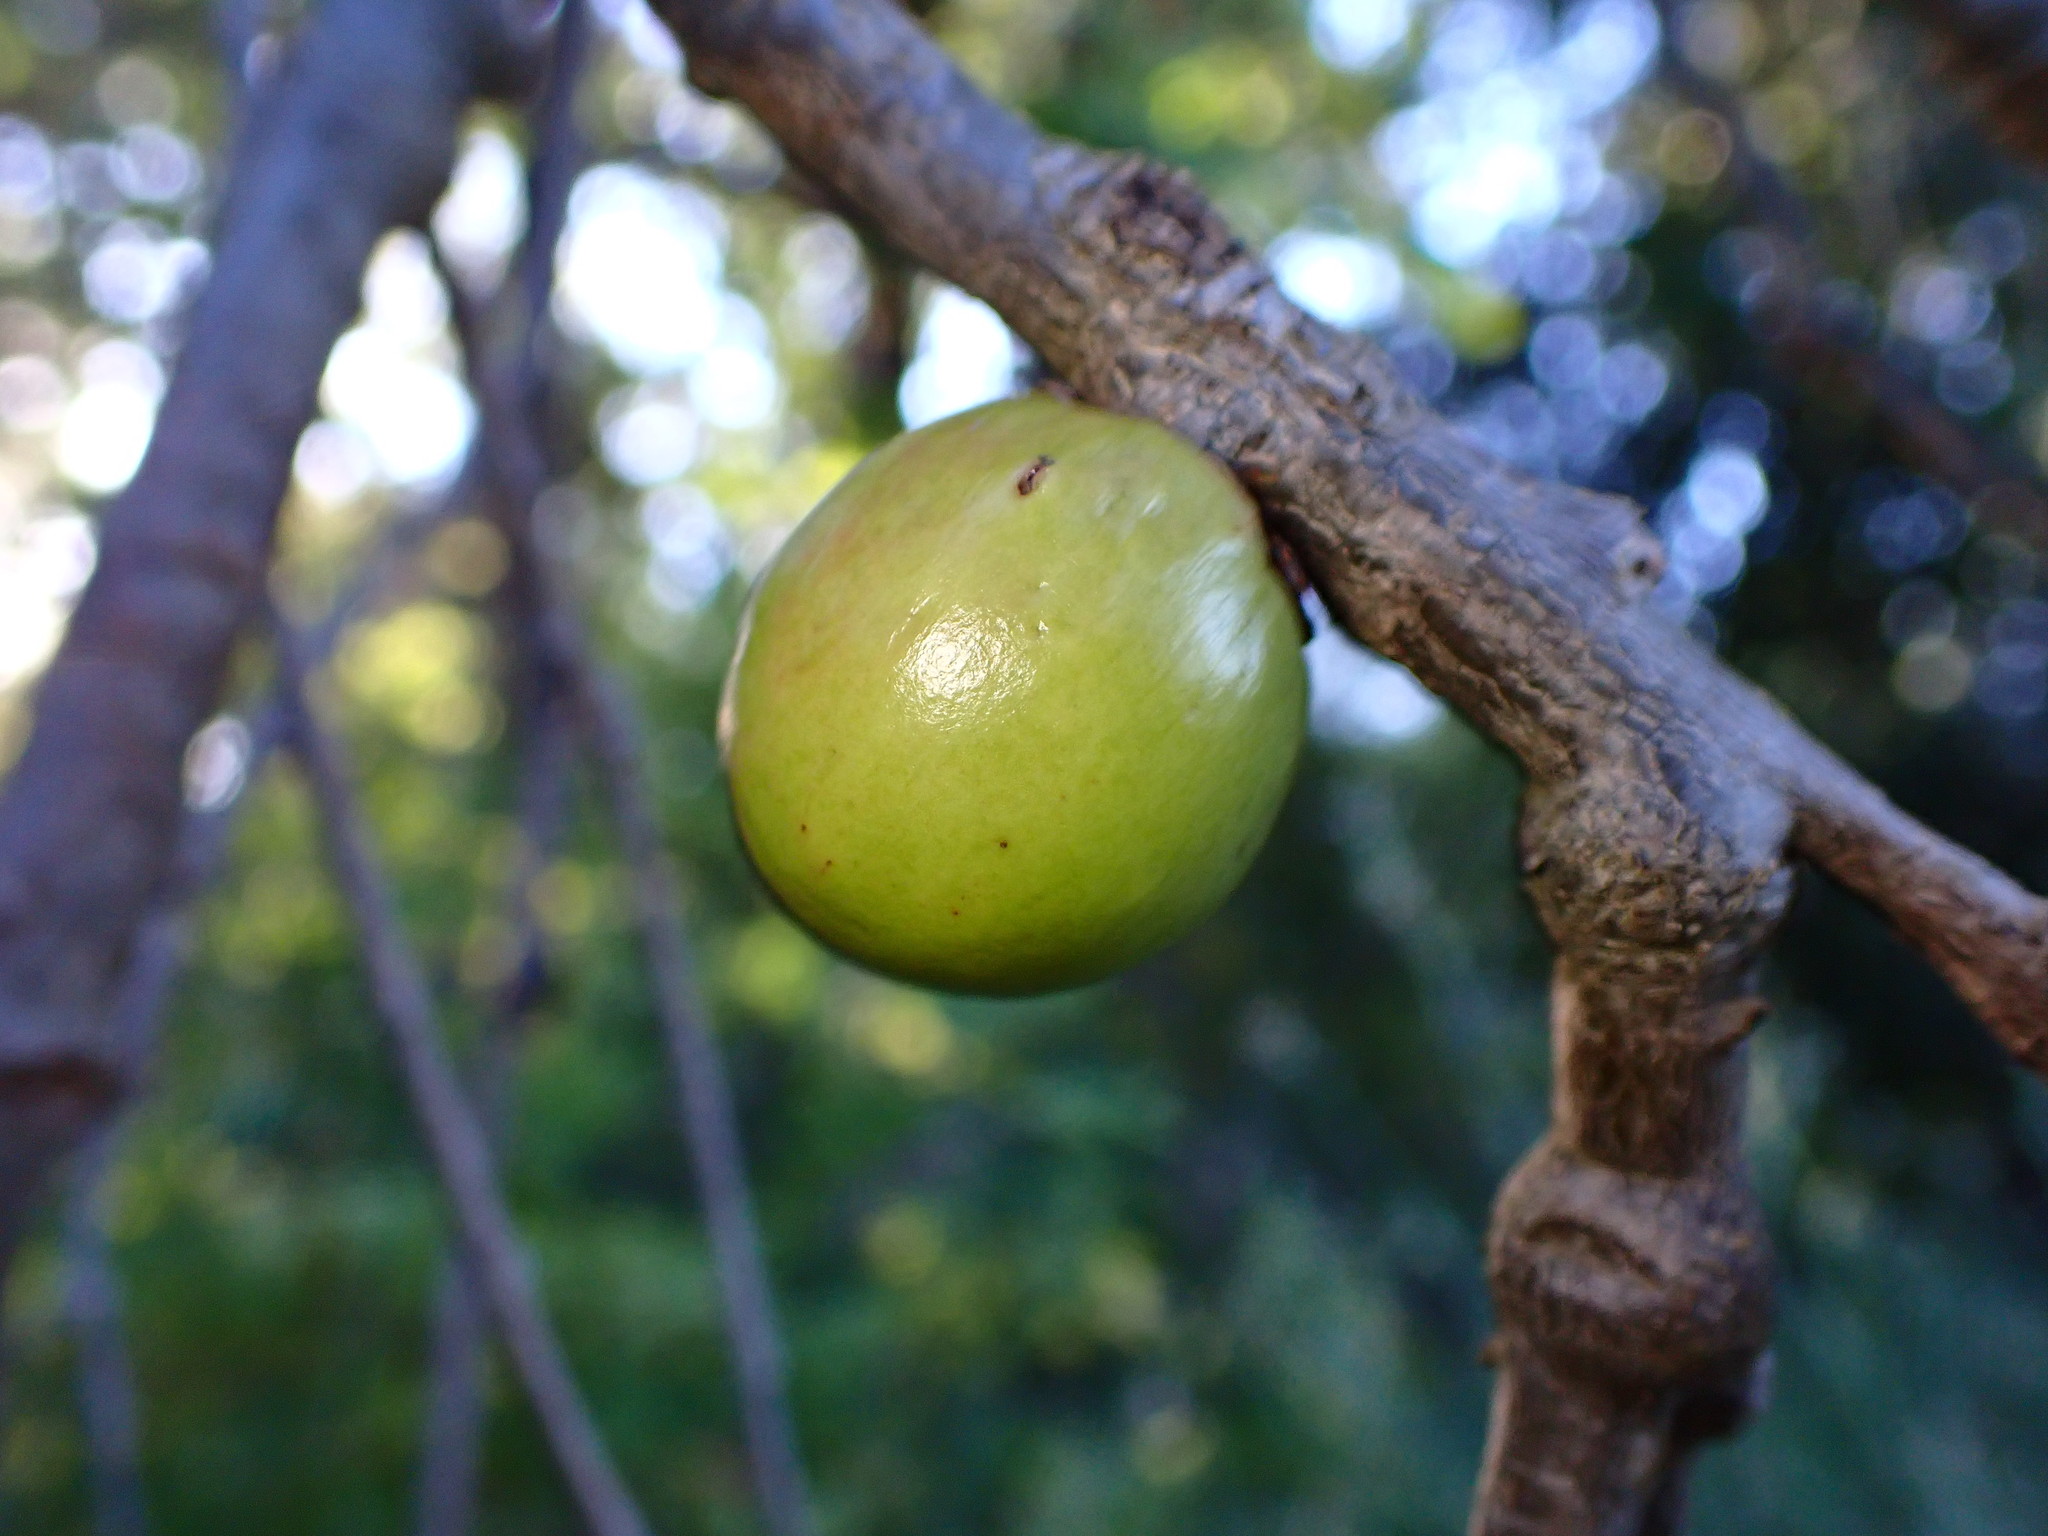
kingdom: Animalia
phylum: Arthropoda
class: Insecta
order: Hymenoptera
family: Cynipidae
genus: Andricus
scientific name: Andricus quercuscalifornicus
